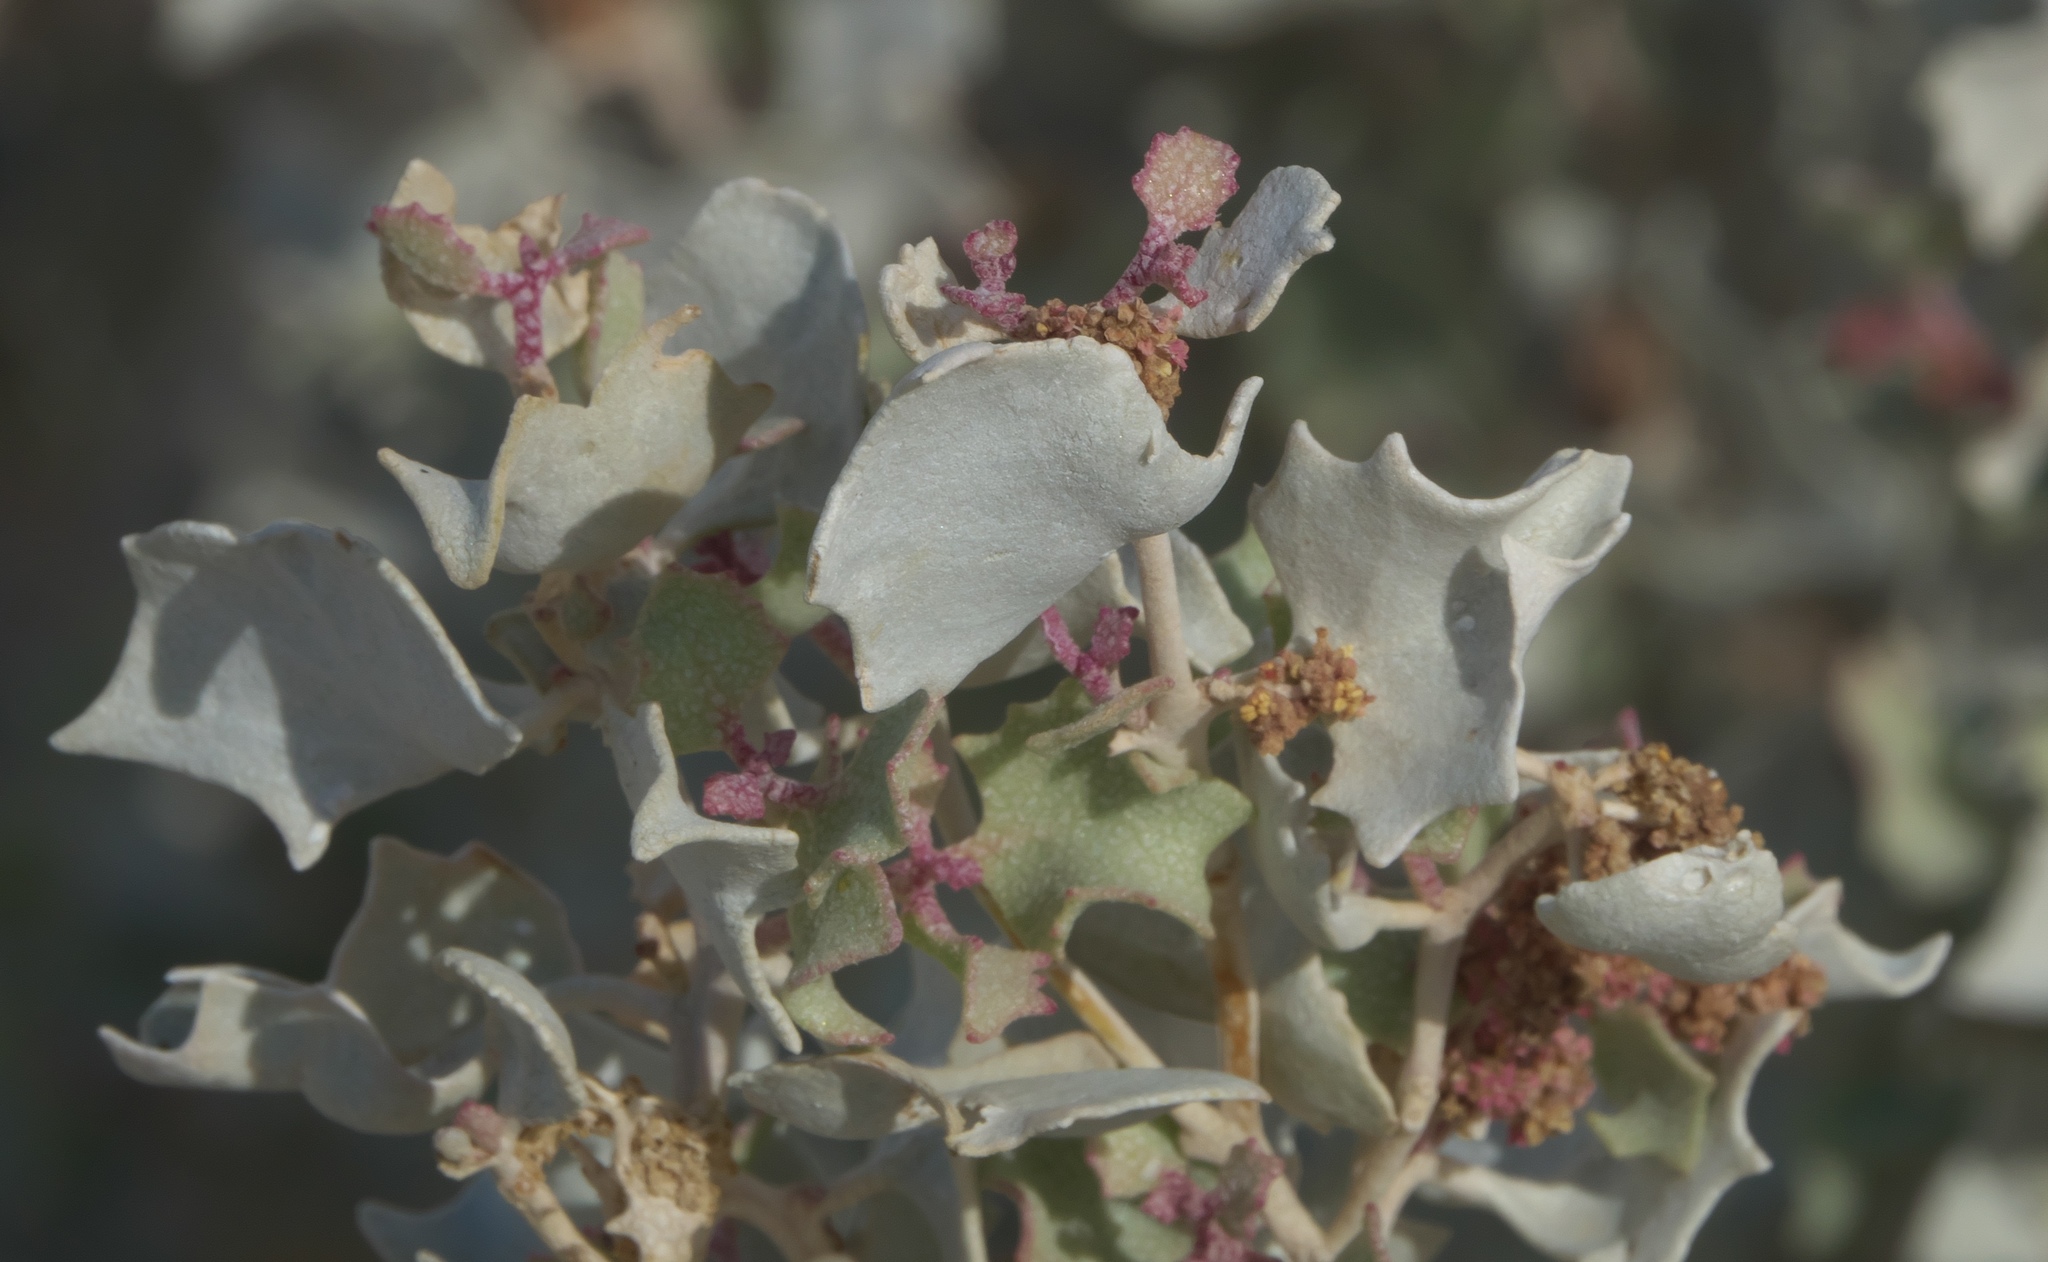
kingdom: Plantae
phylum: Tracheophyta
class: Magnoliopsida
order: Caryophyllales
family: Amaranthaceae
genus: Atriplex
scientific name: Atriplex hymenelytra
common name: Desert-holly
